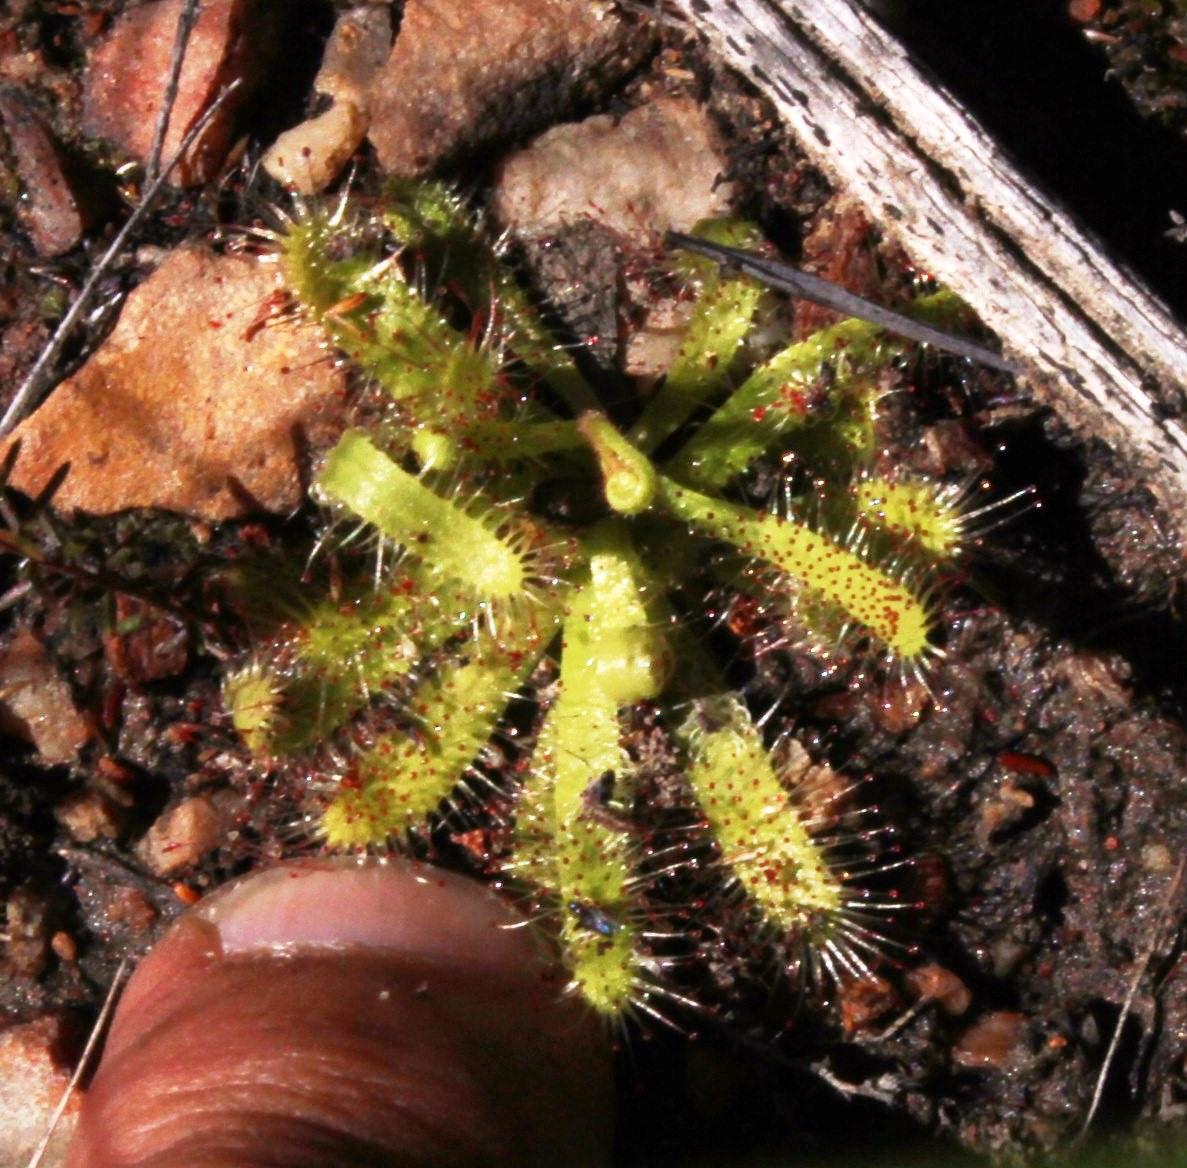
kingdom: Plantae
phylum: Tracheophyta
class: Magnoliopsida
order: Caryophyllales
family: Droseraceae
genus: Drosera
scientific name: Drosera cistiflora
